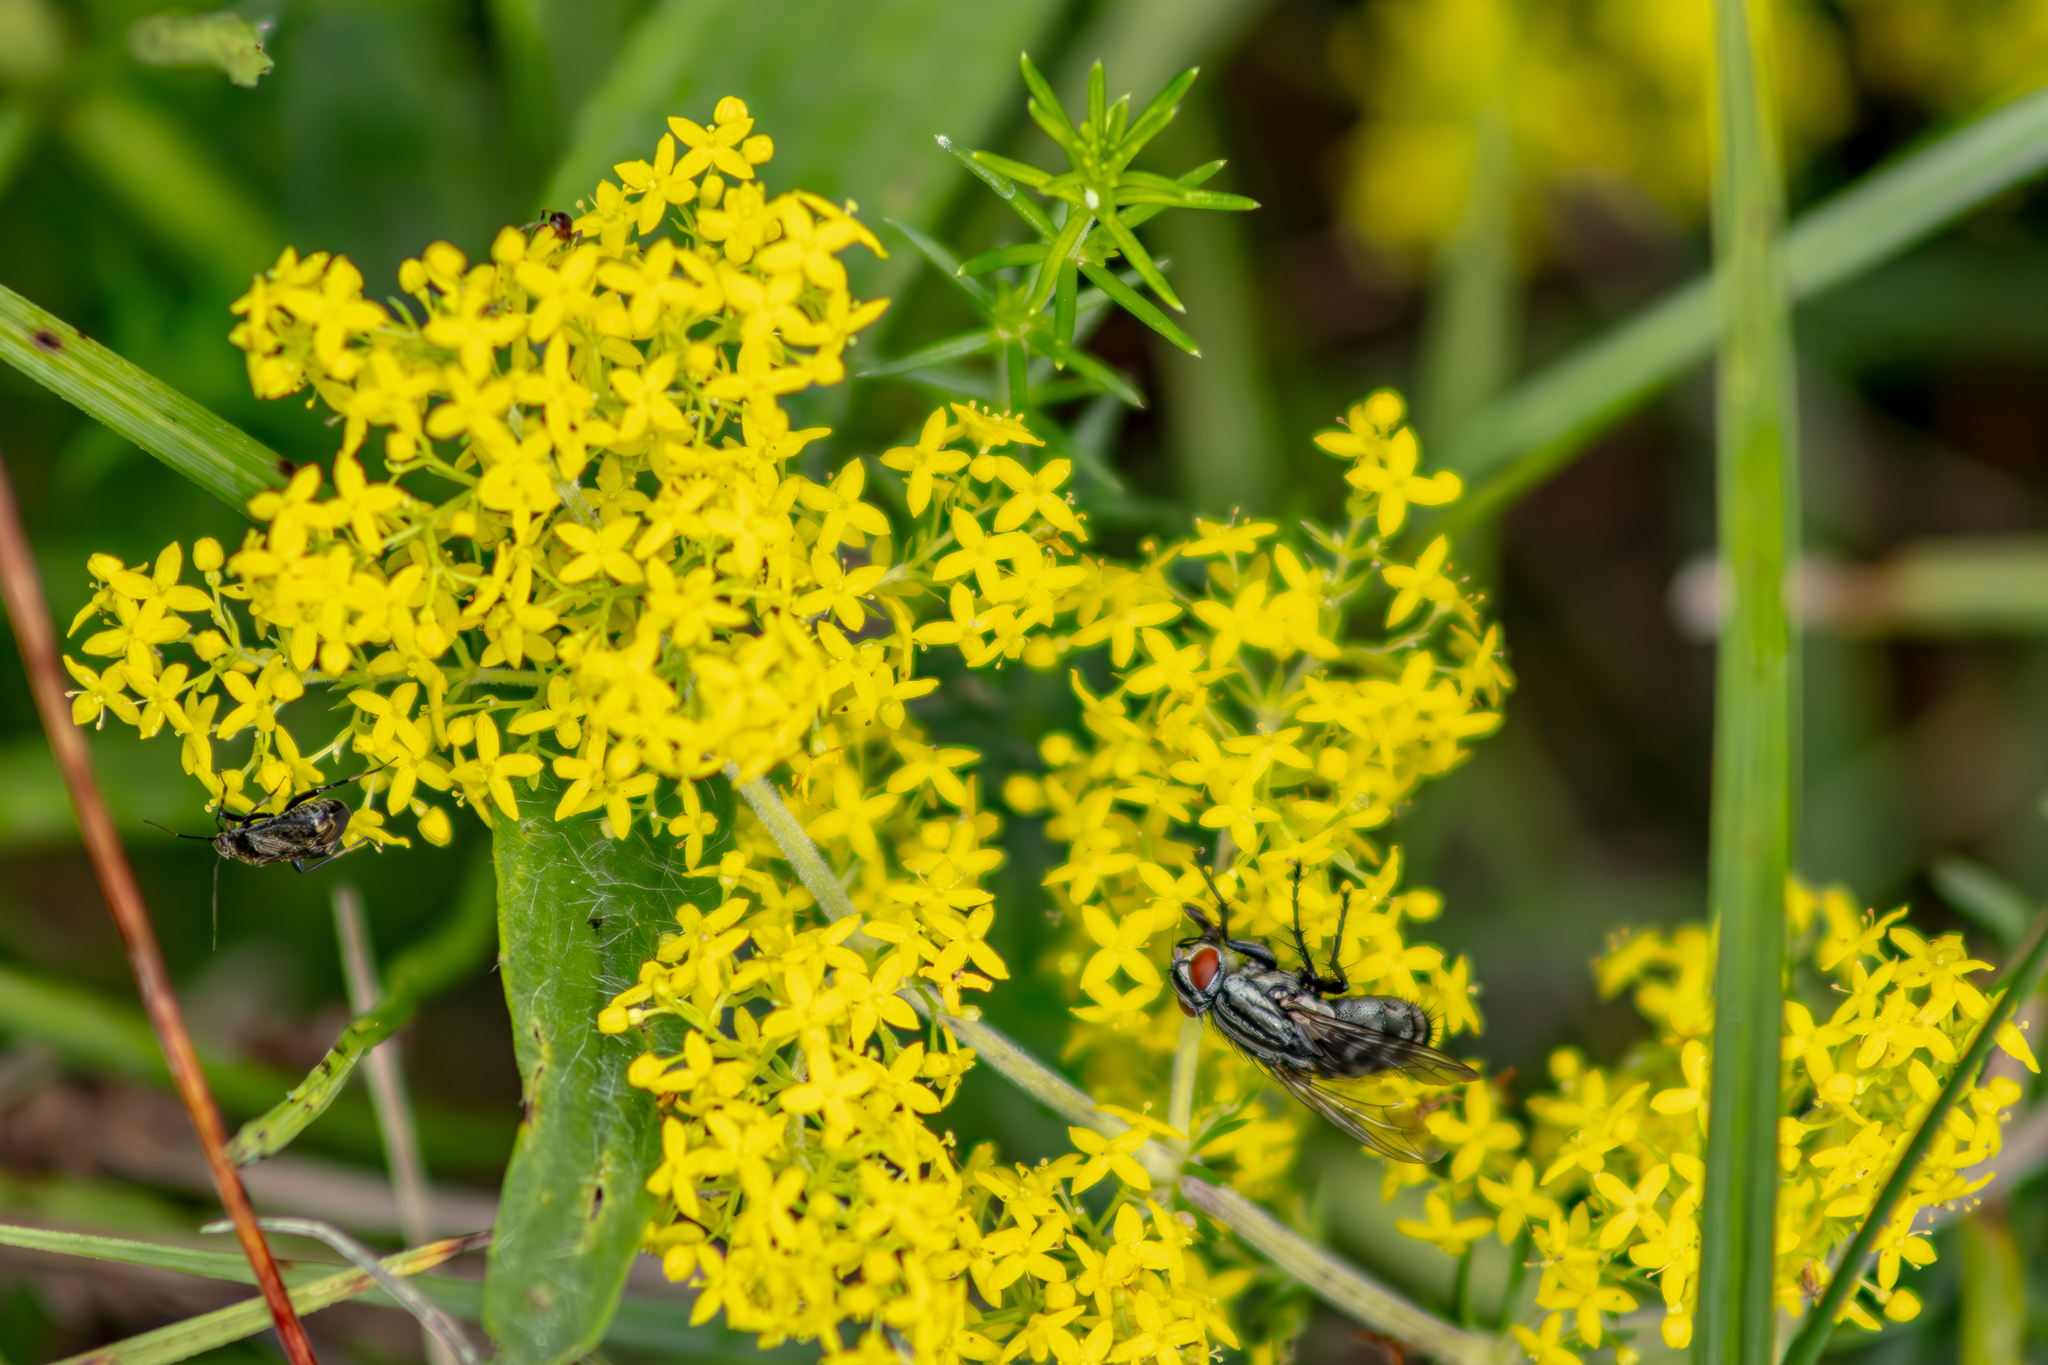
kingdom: Plantae
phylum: Tracheophyta
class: Magnoliopsida
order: Gentianales
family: Rubiaceae
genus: Galium
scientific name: Galium verum
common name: Lady's bedstraw
